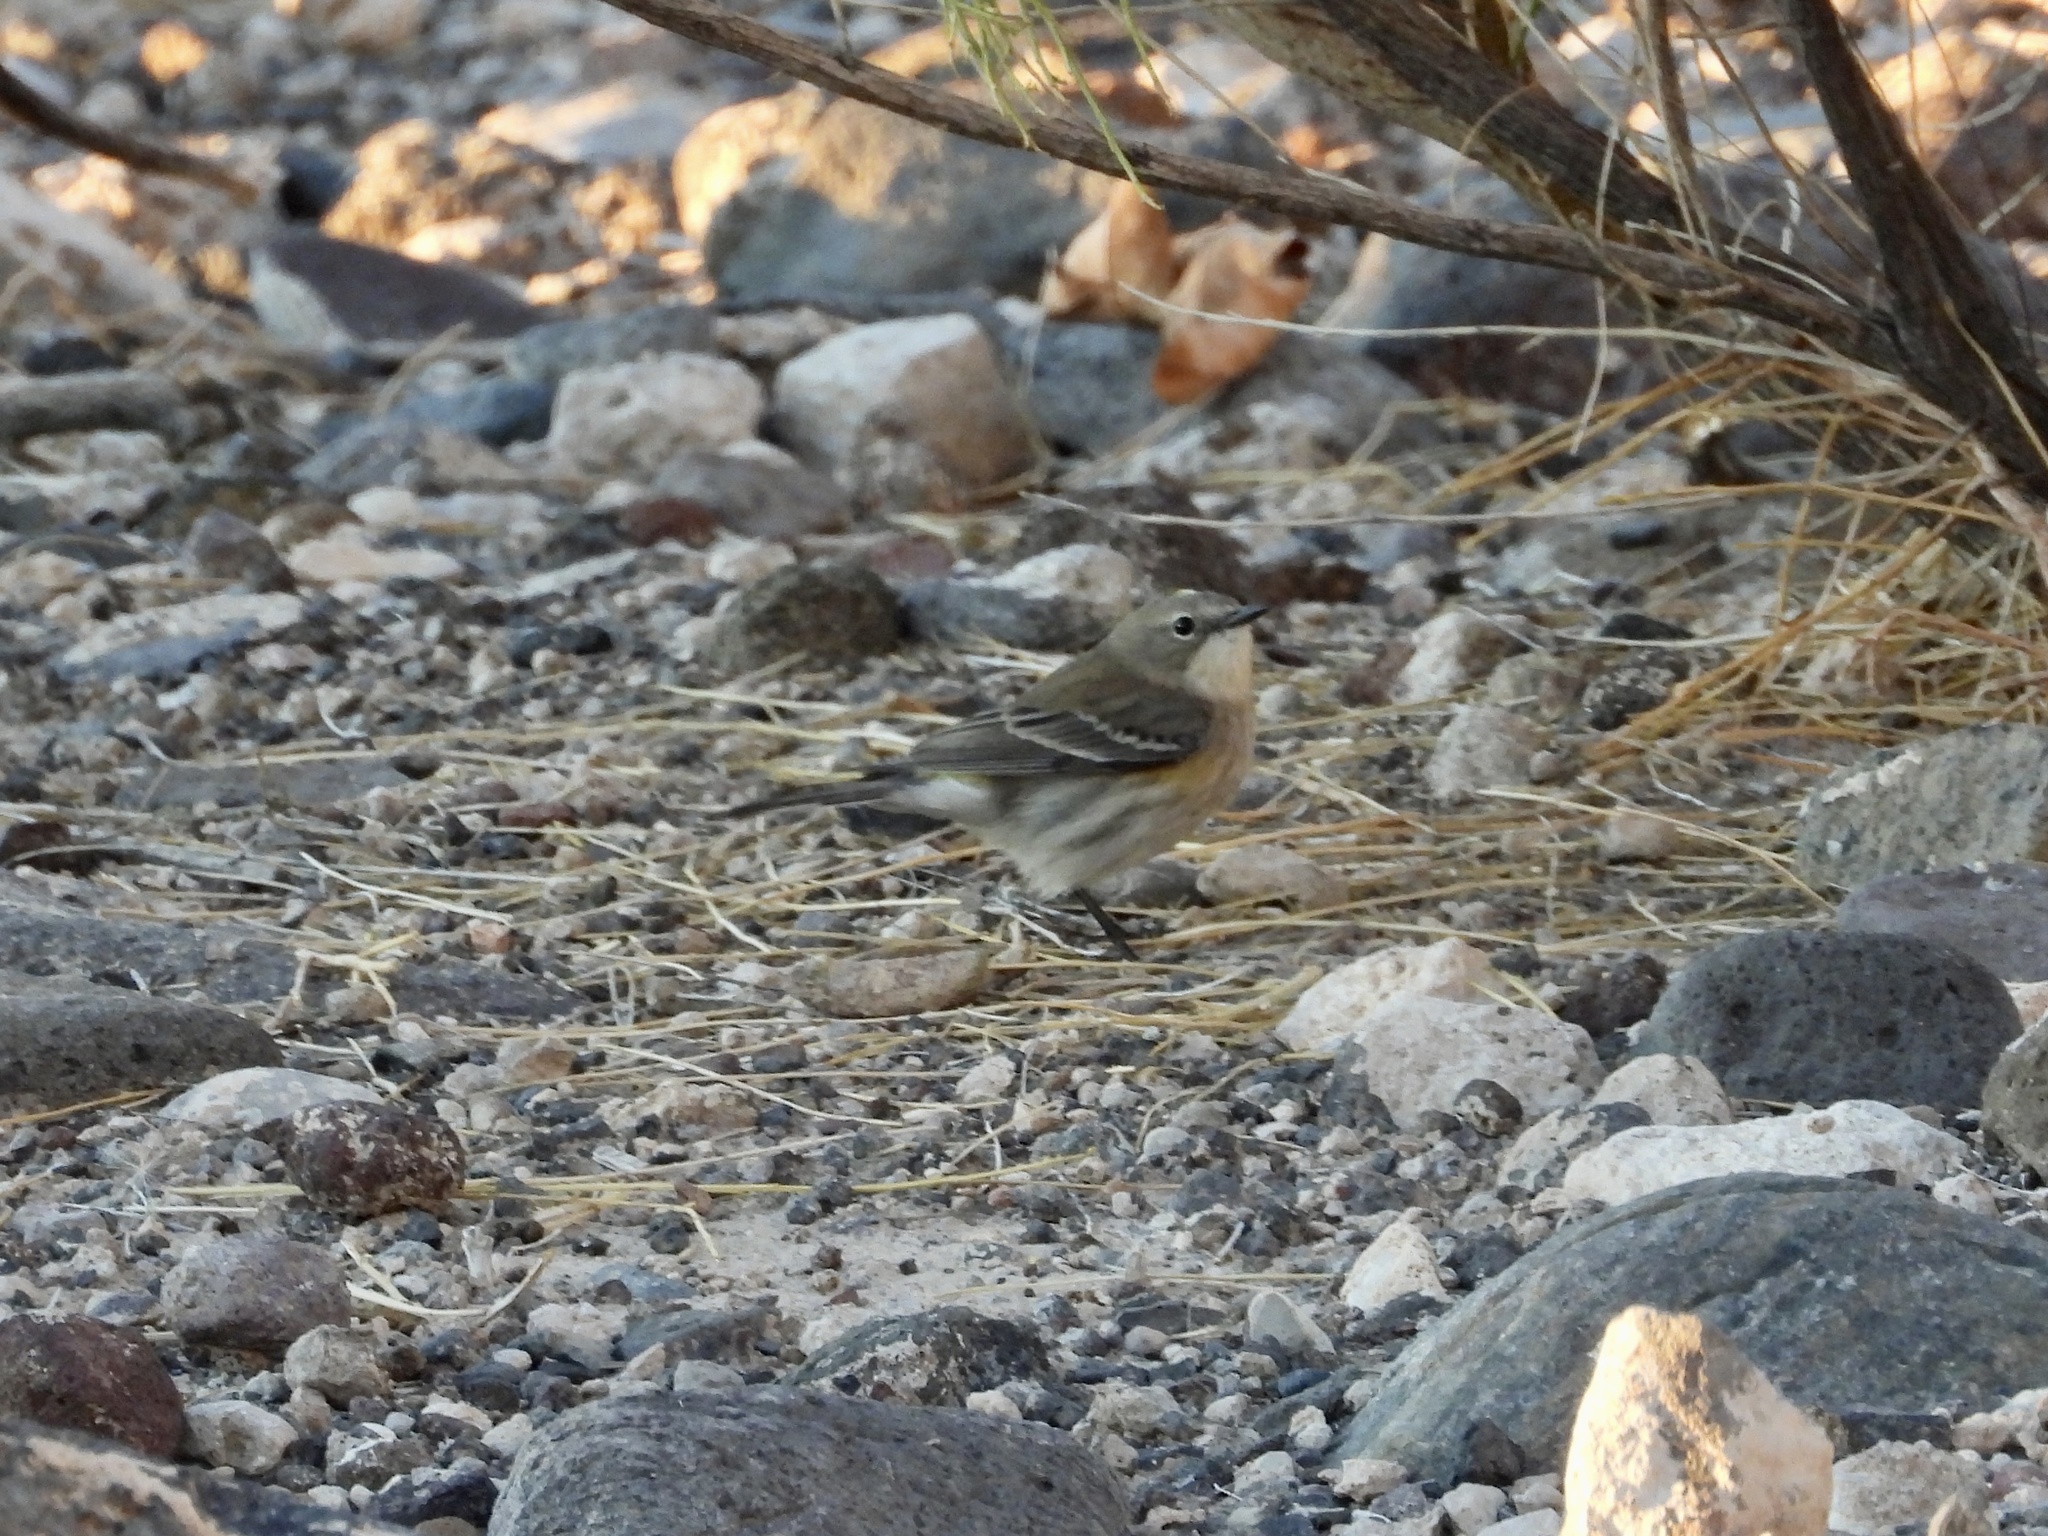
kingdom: Animalia
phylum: Chordata
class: Aves
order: Passeriformes
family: Parulidae
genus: Setophaga
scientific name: Setophaga coronata
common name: Myrtle warbler
